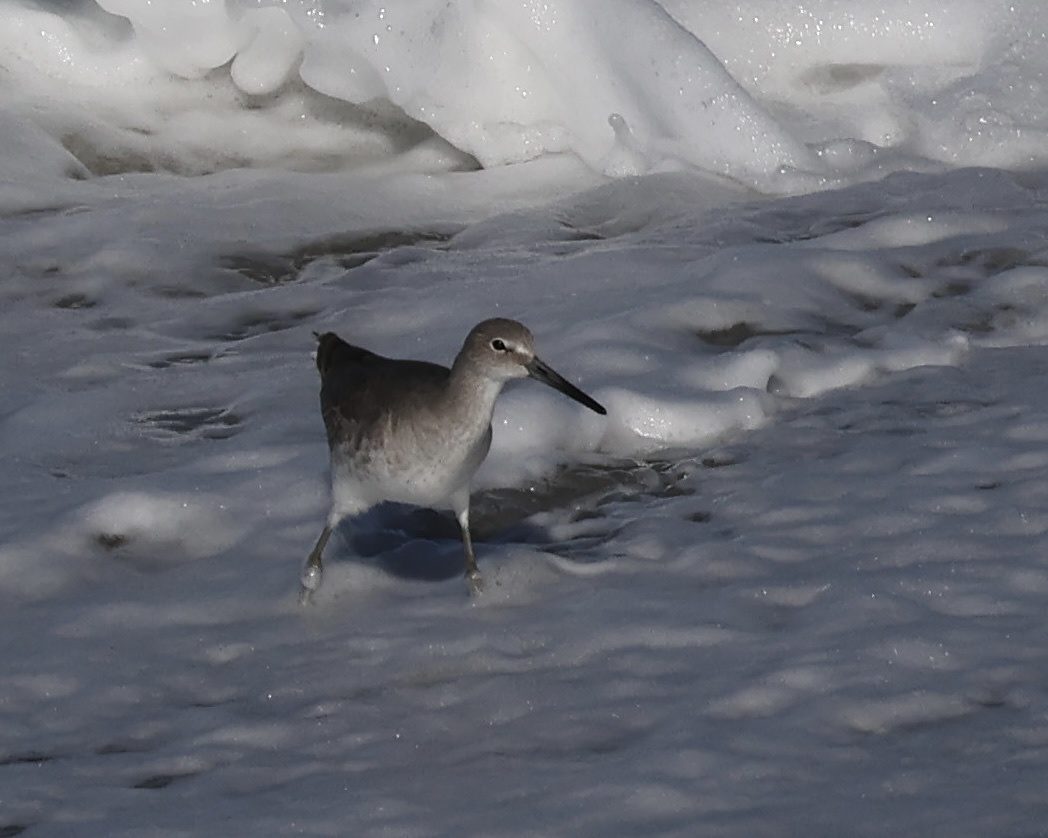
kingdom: Animalia
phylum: Chordata
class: Aves
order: Charadriiformes
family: Scolopacidae
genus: Tringa
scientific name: Tringa semipalmata
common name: Willet
